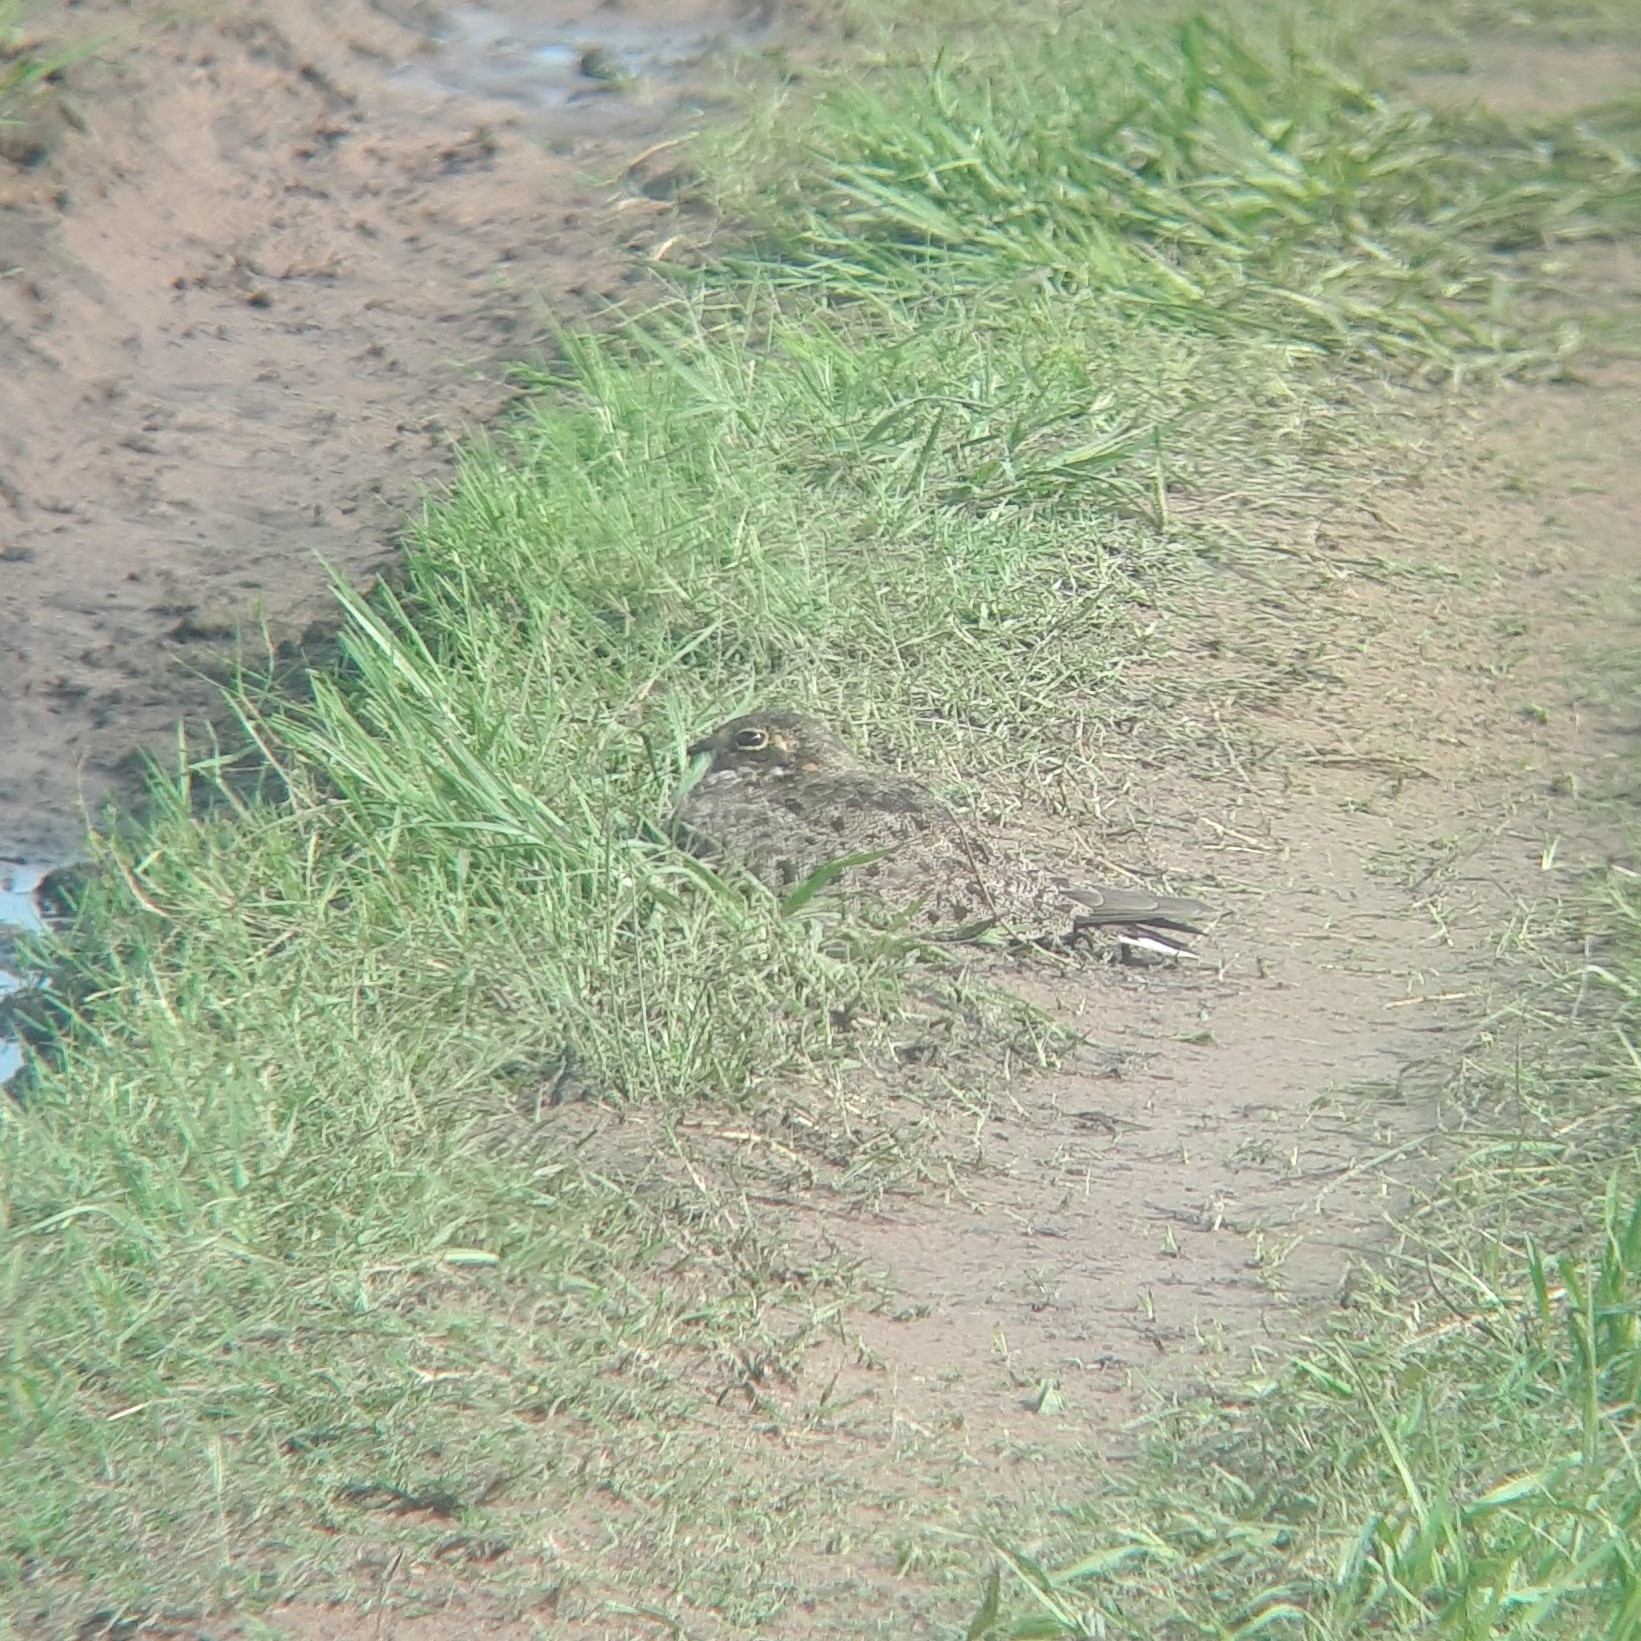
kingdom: Animalia
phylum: Chordata
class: Aves
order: Caprimulgiformes
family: Caprimulgidae
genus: Chordeiles
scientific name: Chordeiles nacunda
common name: Nacunda nighthawk
